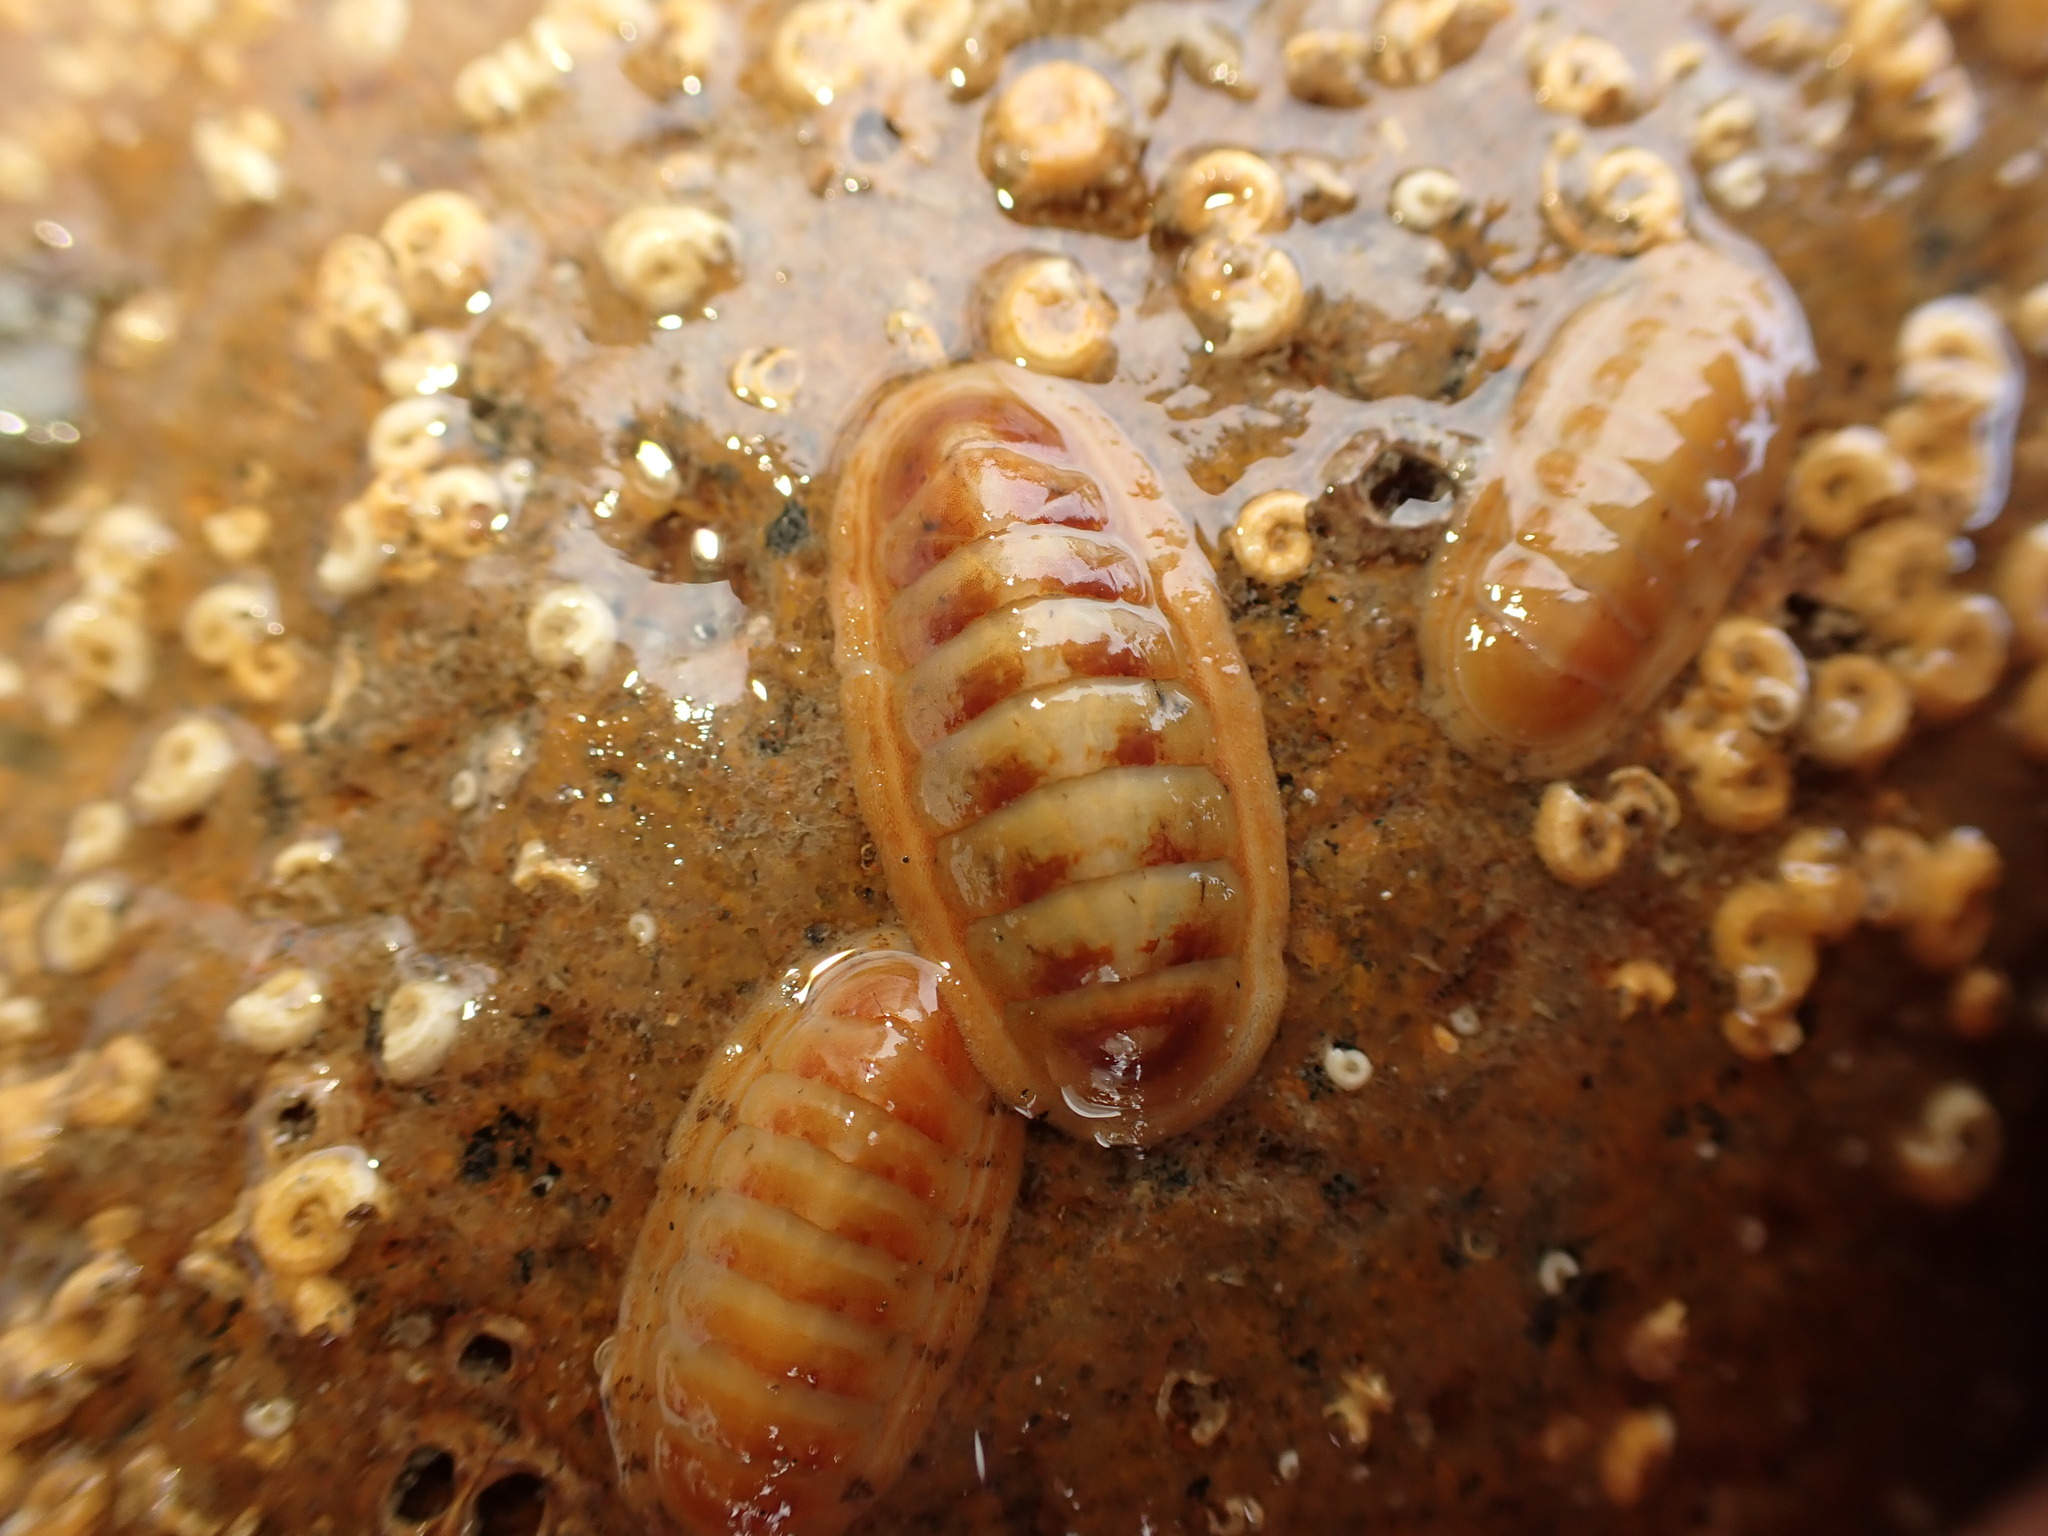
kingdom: Animalia
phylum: Mollusca
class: Polyplacophora
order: Chitonida
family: Ischnochitonidae
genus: Ischnochiton
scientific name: Ischnochiton circumvallatus
